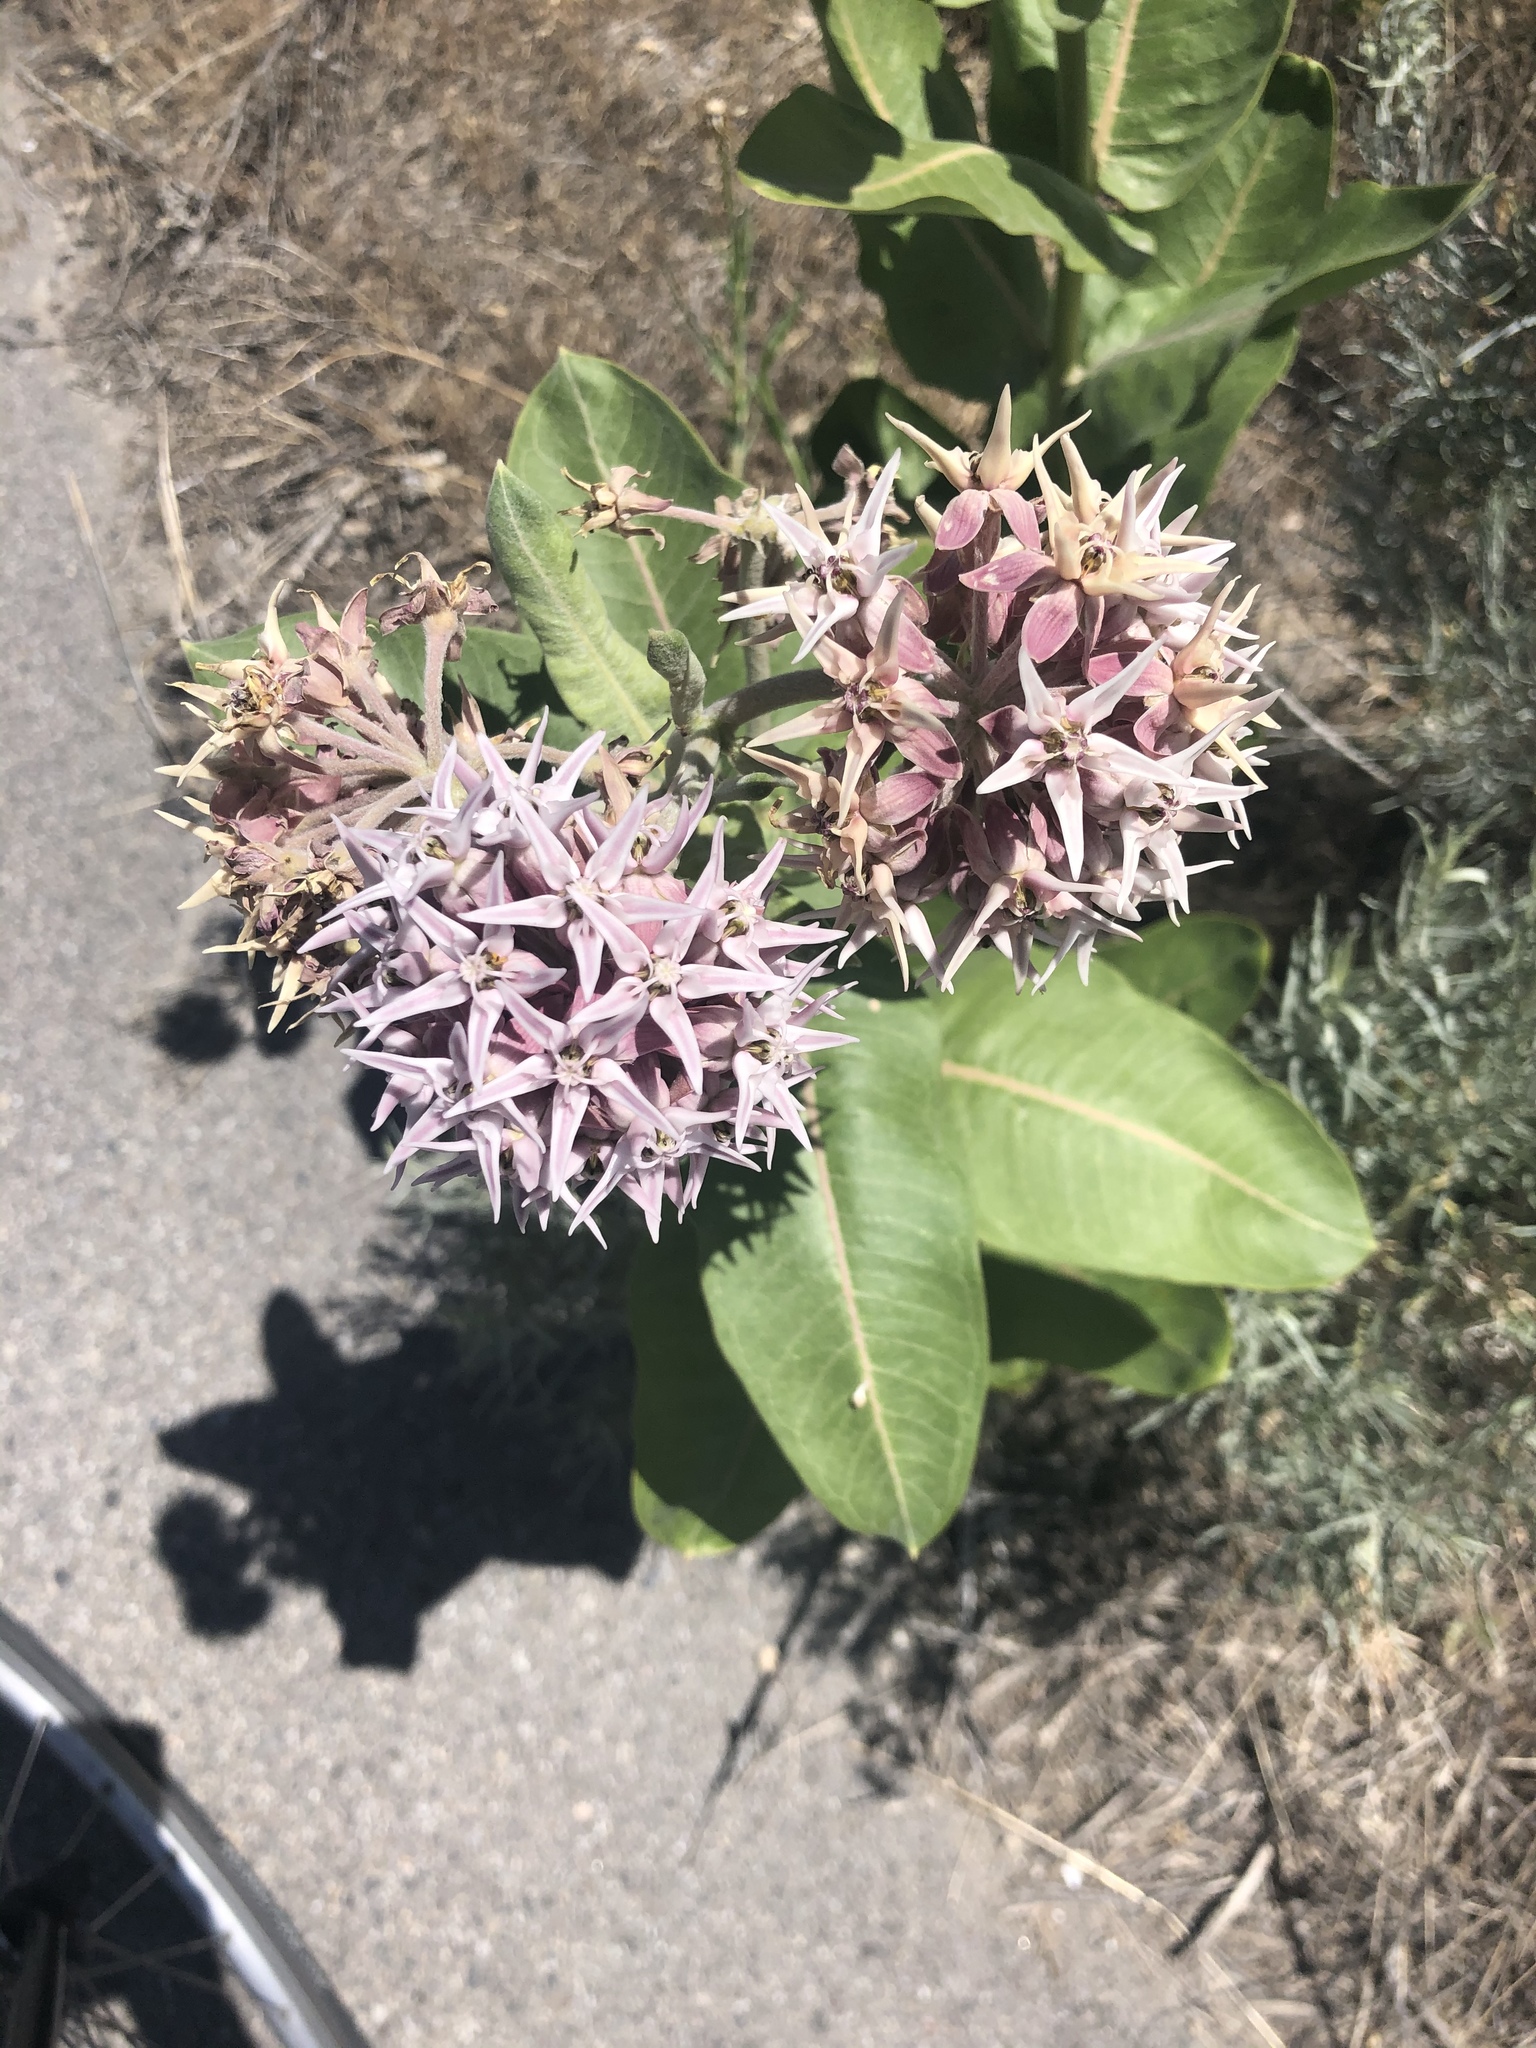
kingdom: Plantae
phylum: Tracheophyta
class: Magnoliopsida
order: Gentianales
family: Apocynaceae
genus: Asclepias
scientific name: Asclepias speciosa
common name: Showy milkweed
